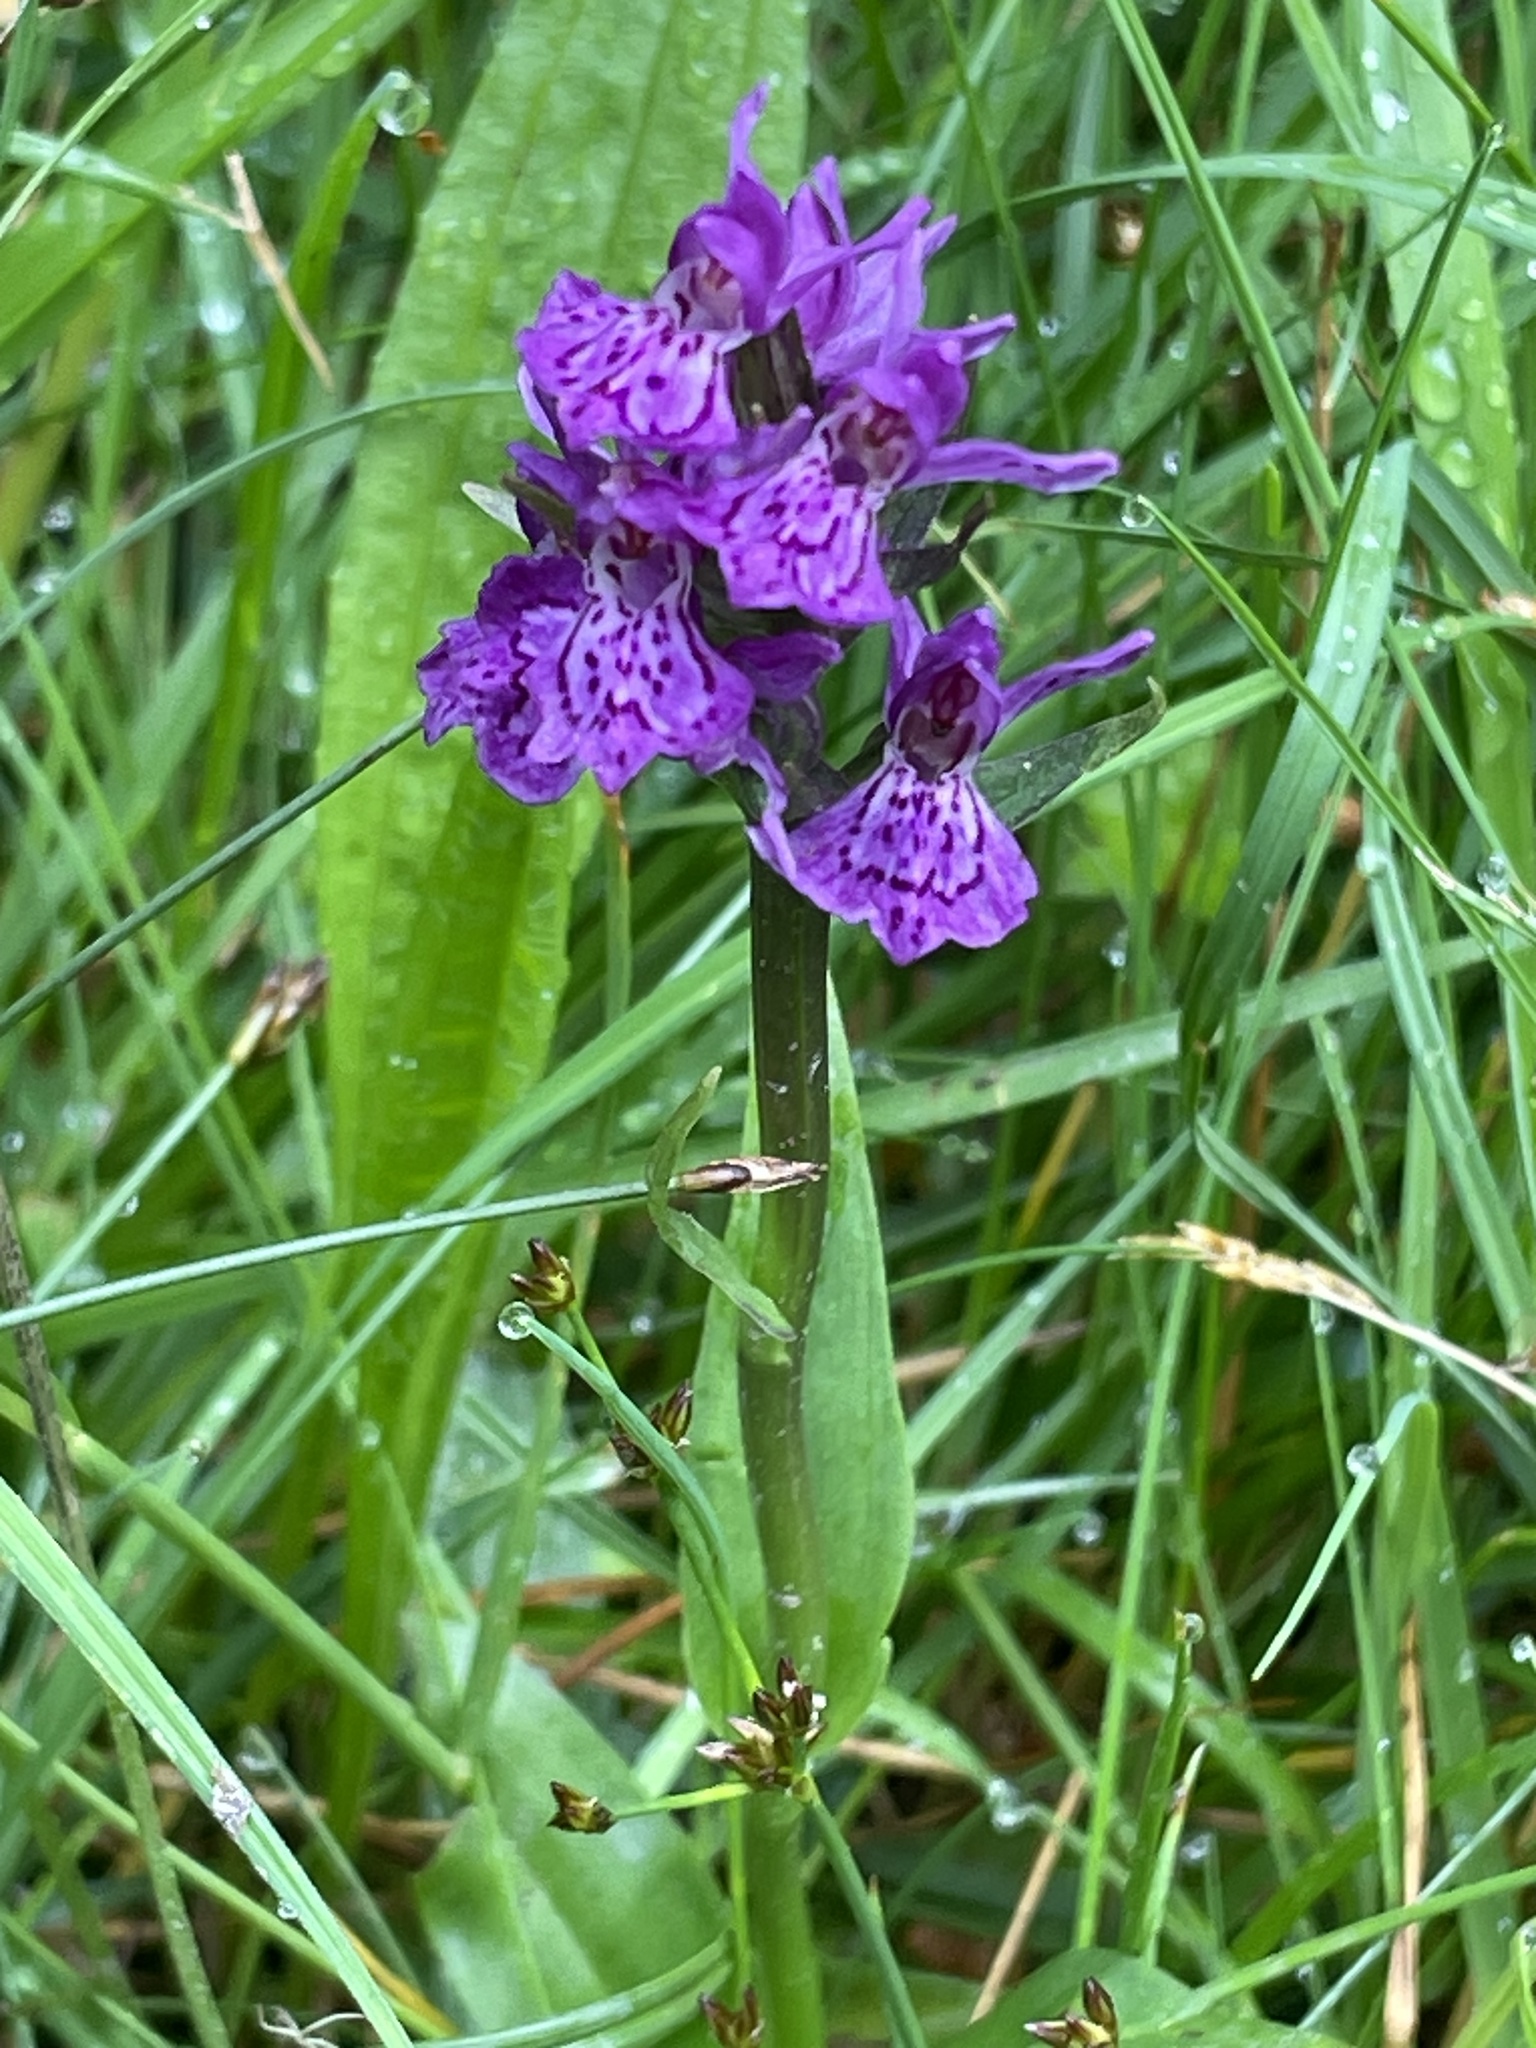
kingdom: Plantae
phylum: Tracheophyta
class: Liliopsida
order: Asparagales
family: Orchidaceae
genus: Dactylorhiza
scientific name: Dactylorhiza majalis
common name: Marsh orchid
